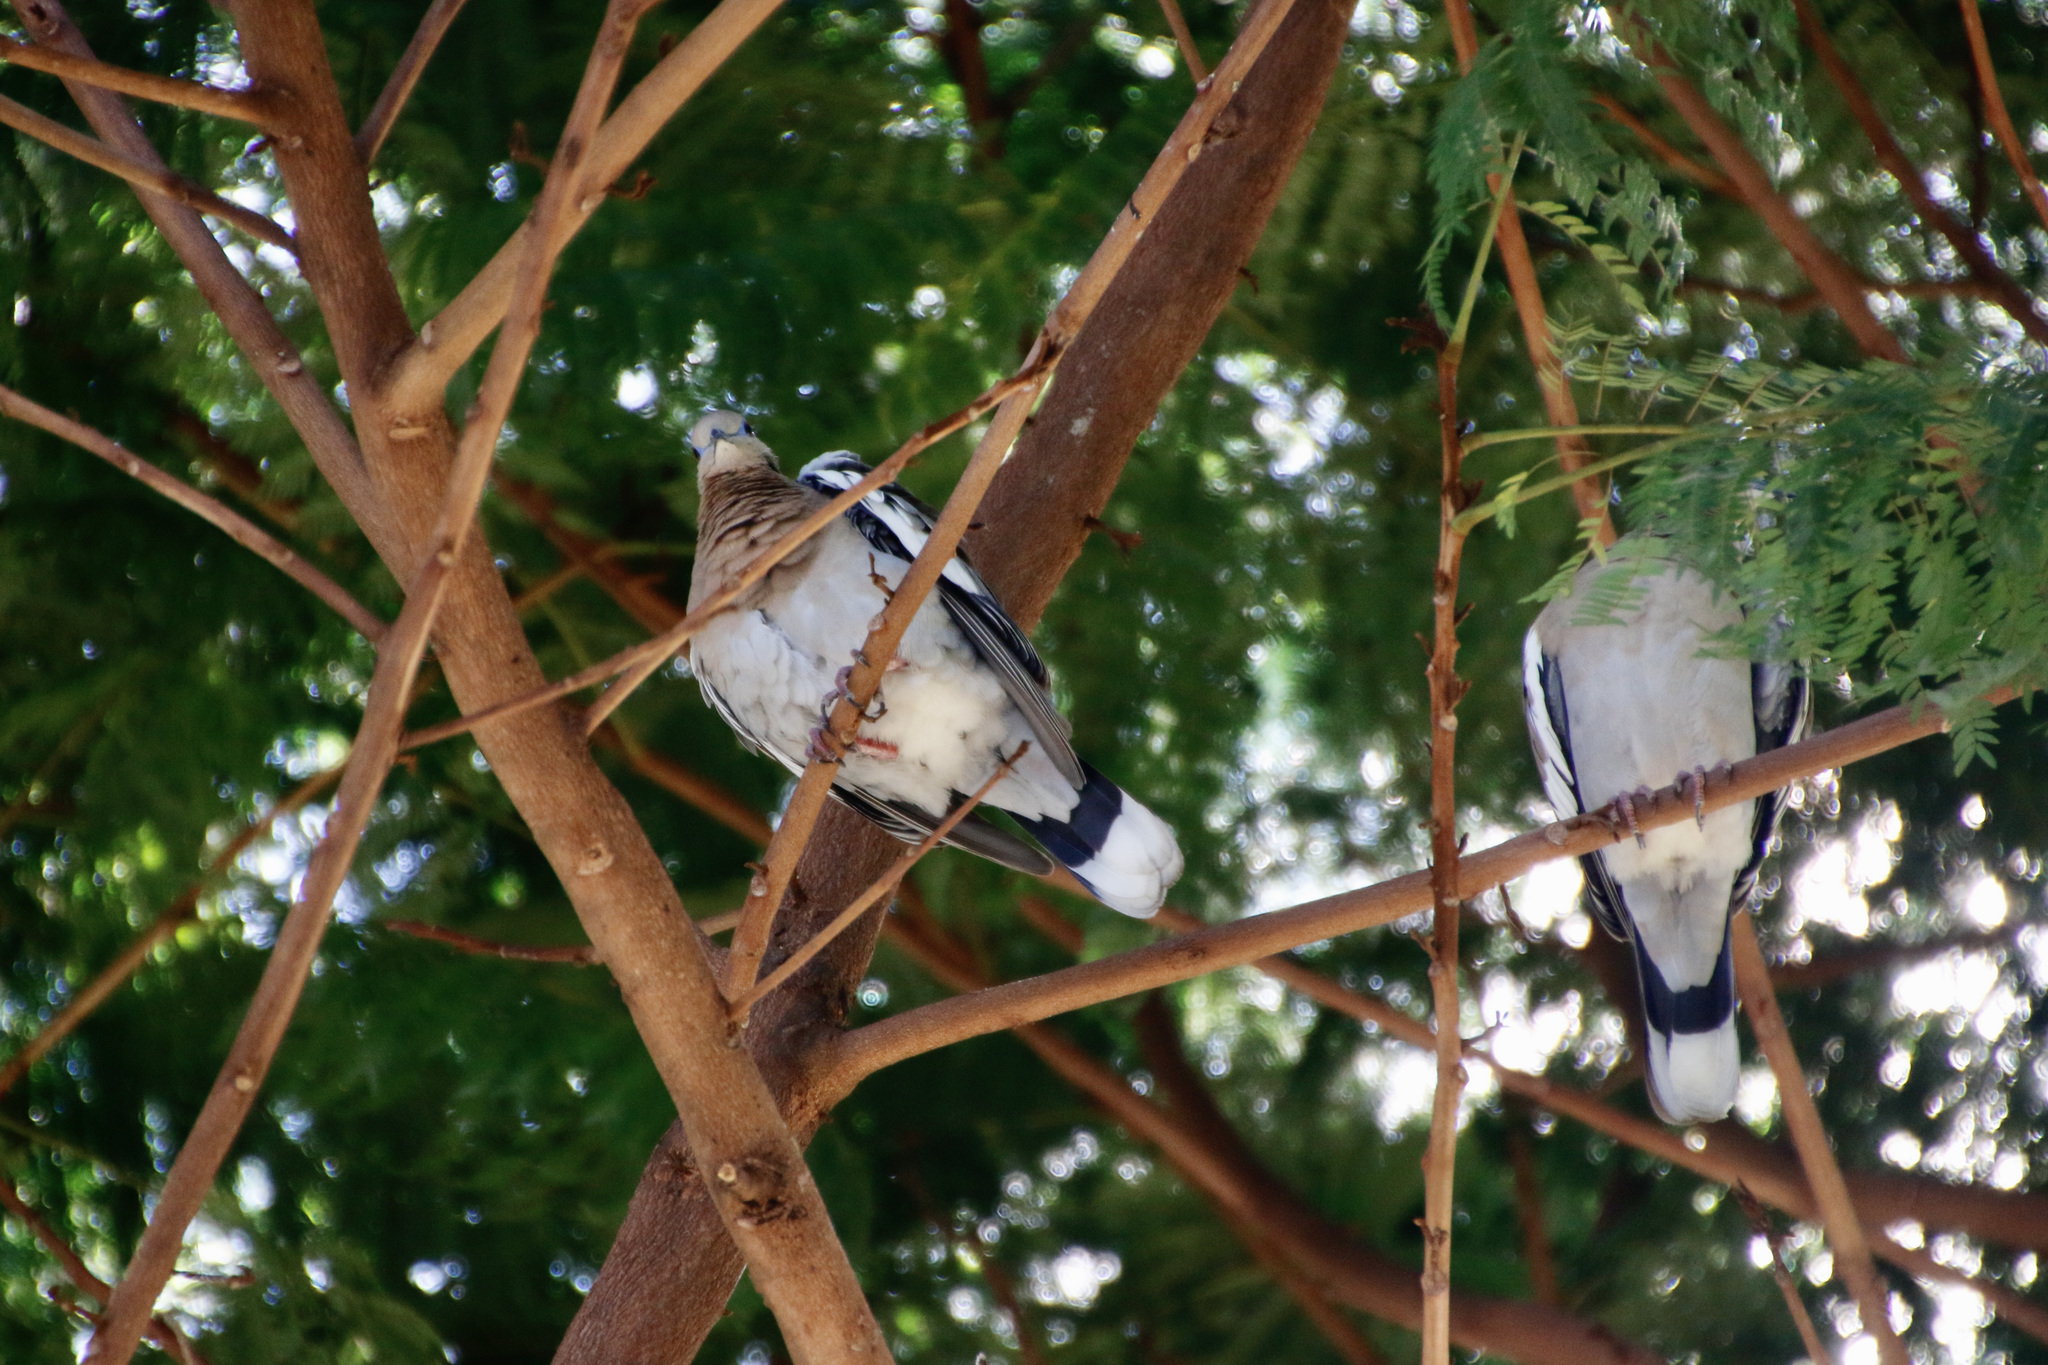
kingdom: Animalia
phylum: Chordata
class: Aves
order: Columbiformes
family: Columbidae
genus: Zenaida
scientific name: Zenaida asiatica
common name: White-winged dove
